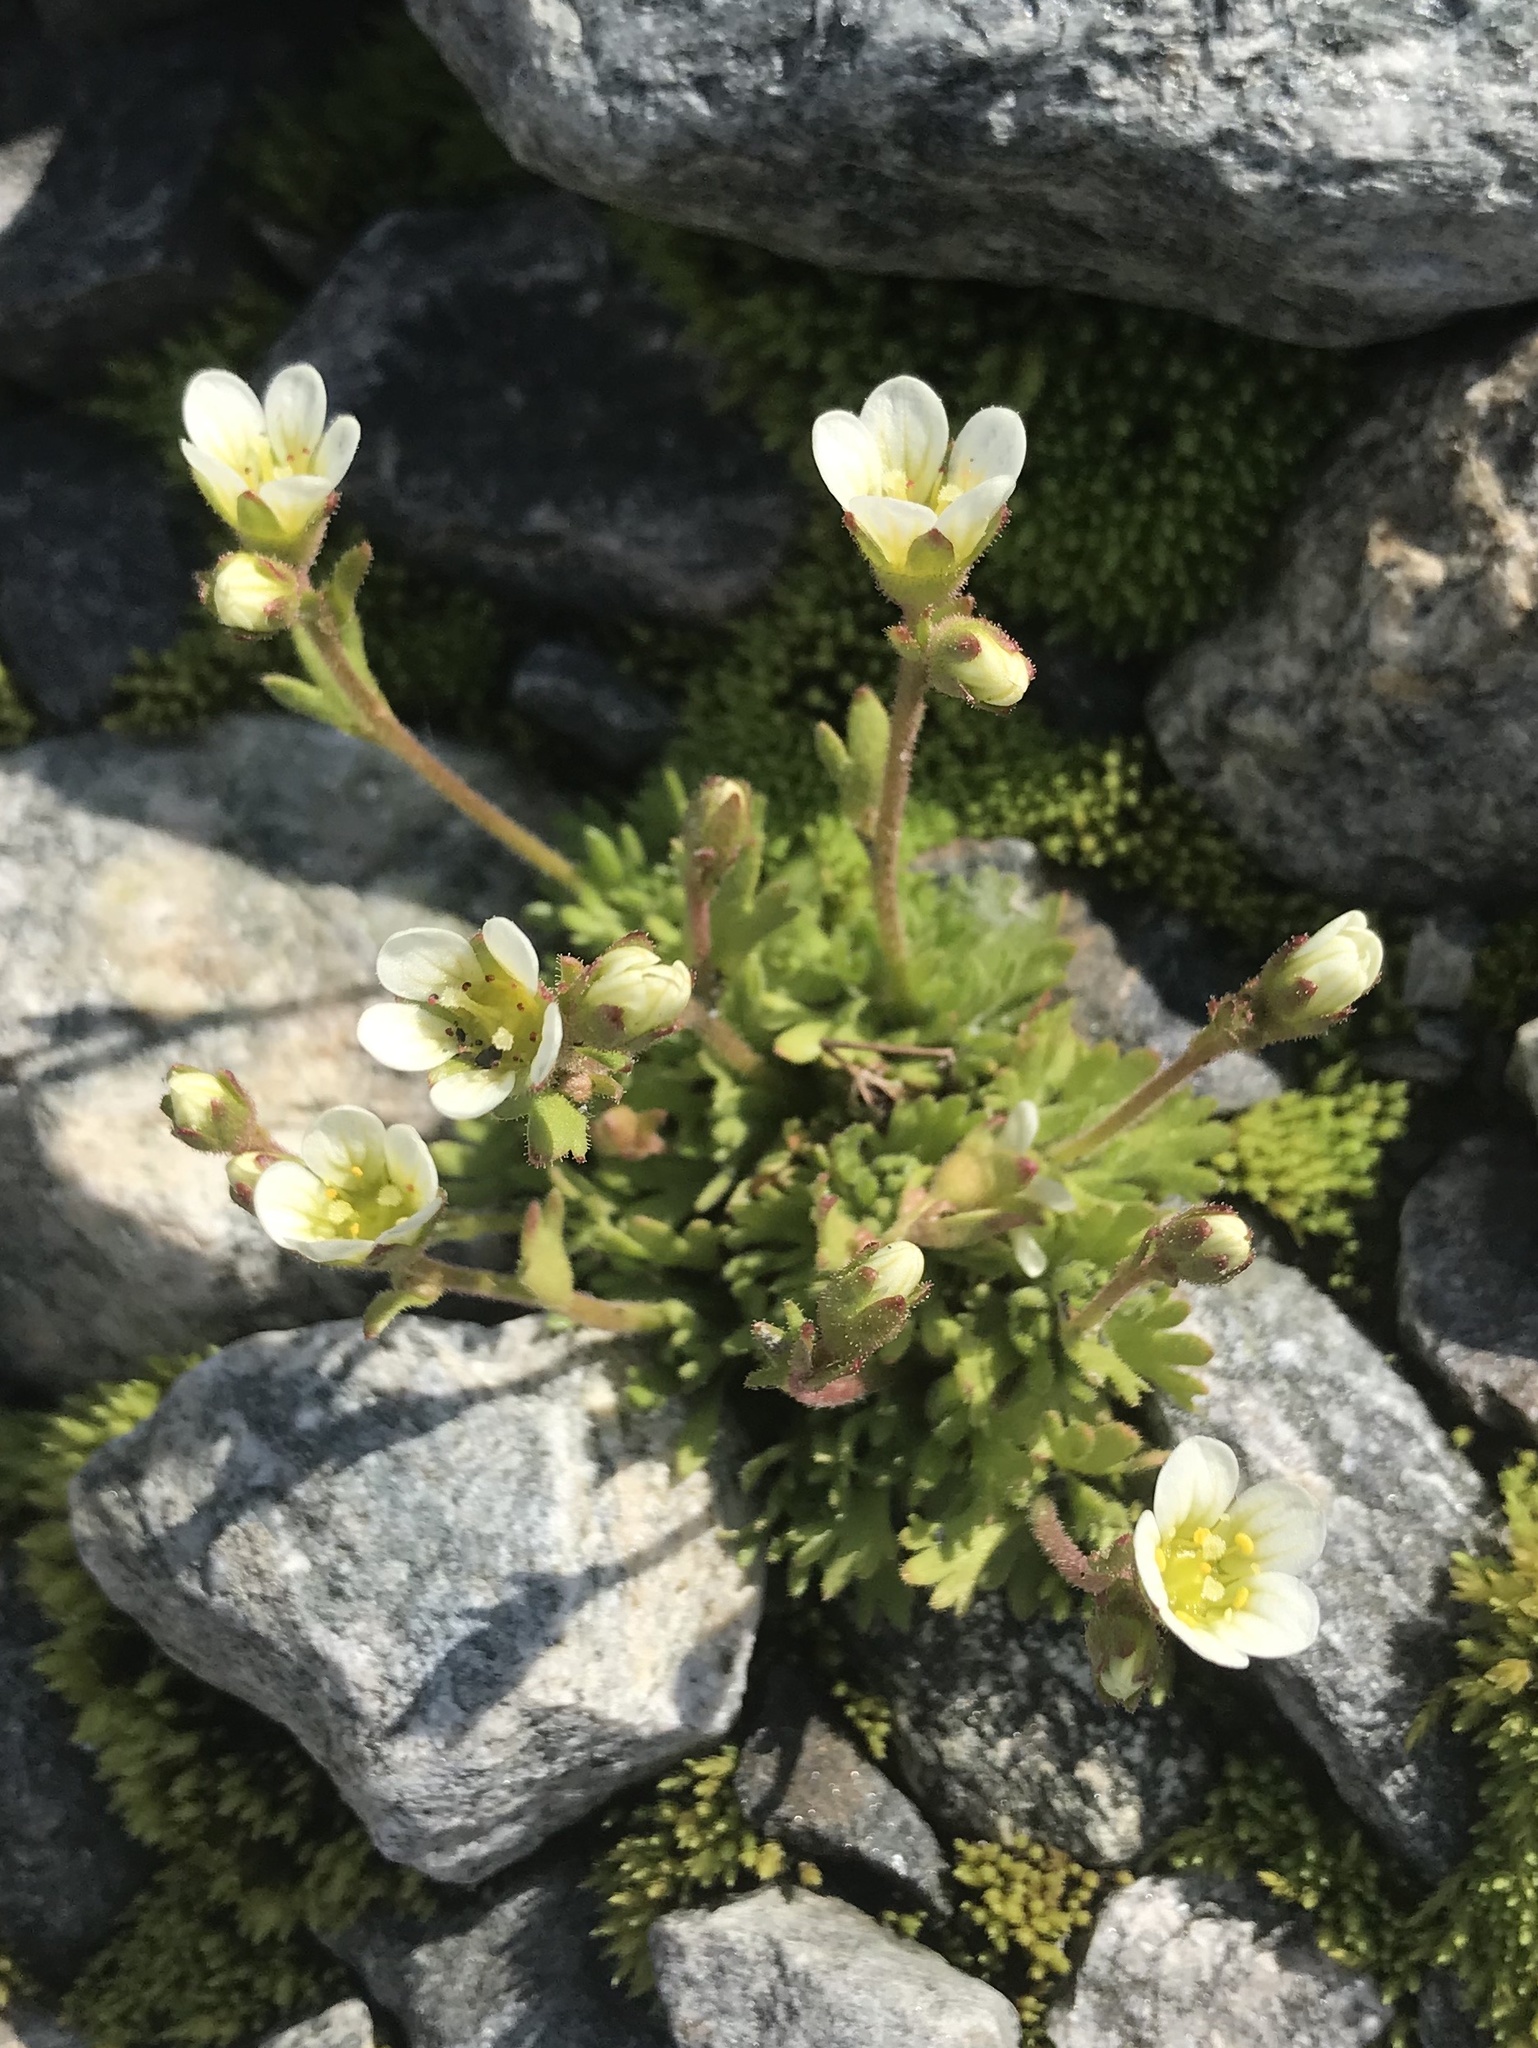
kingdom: Plantae
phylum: Tracheophyta
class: Magnoliopsida
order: Saxifragales
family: Saxifragaceae
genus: Saxifraga
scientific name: Saxifraga cespitosa
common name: Tufted saxifrage
